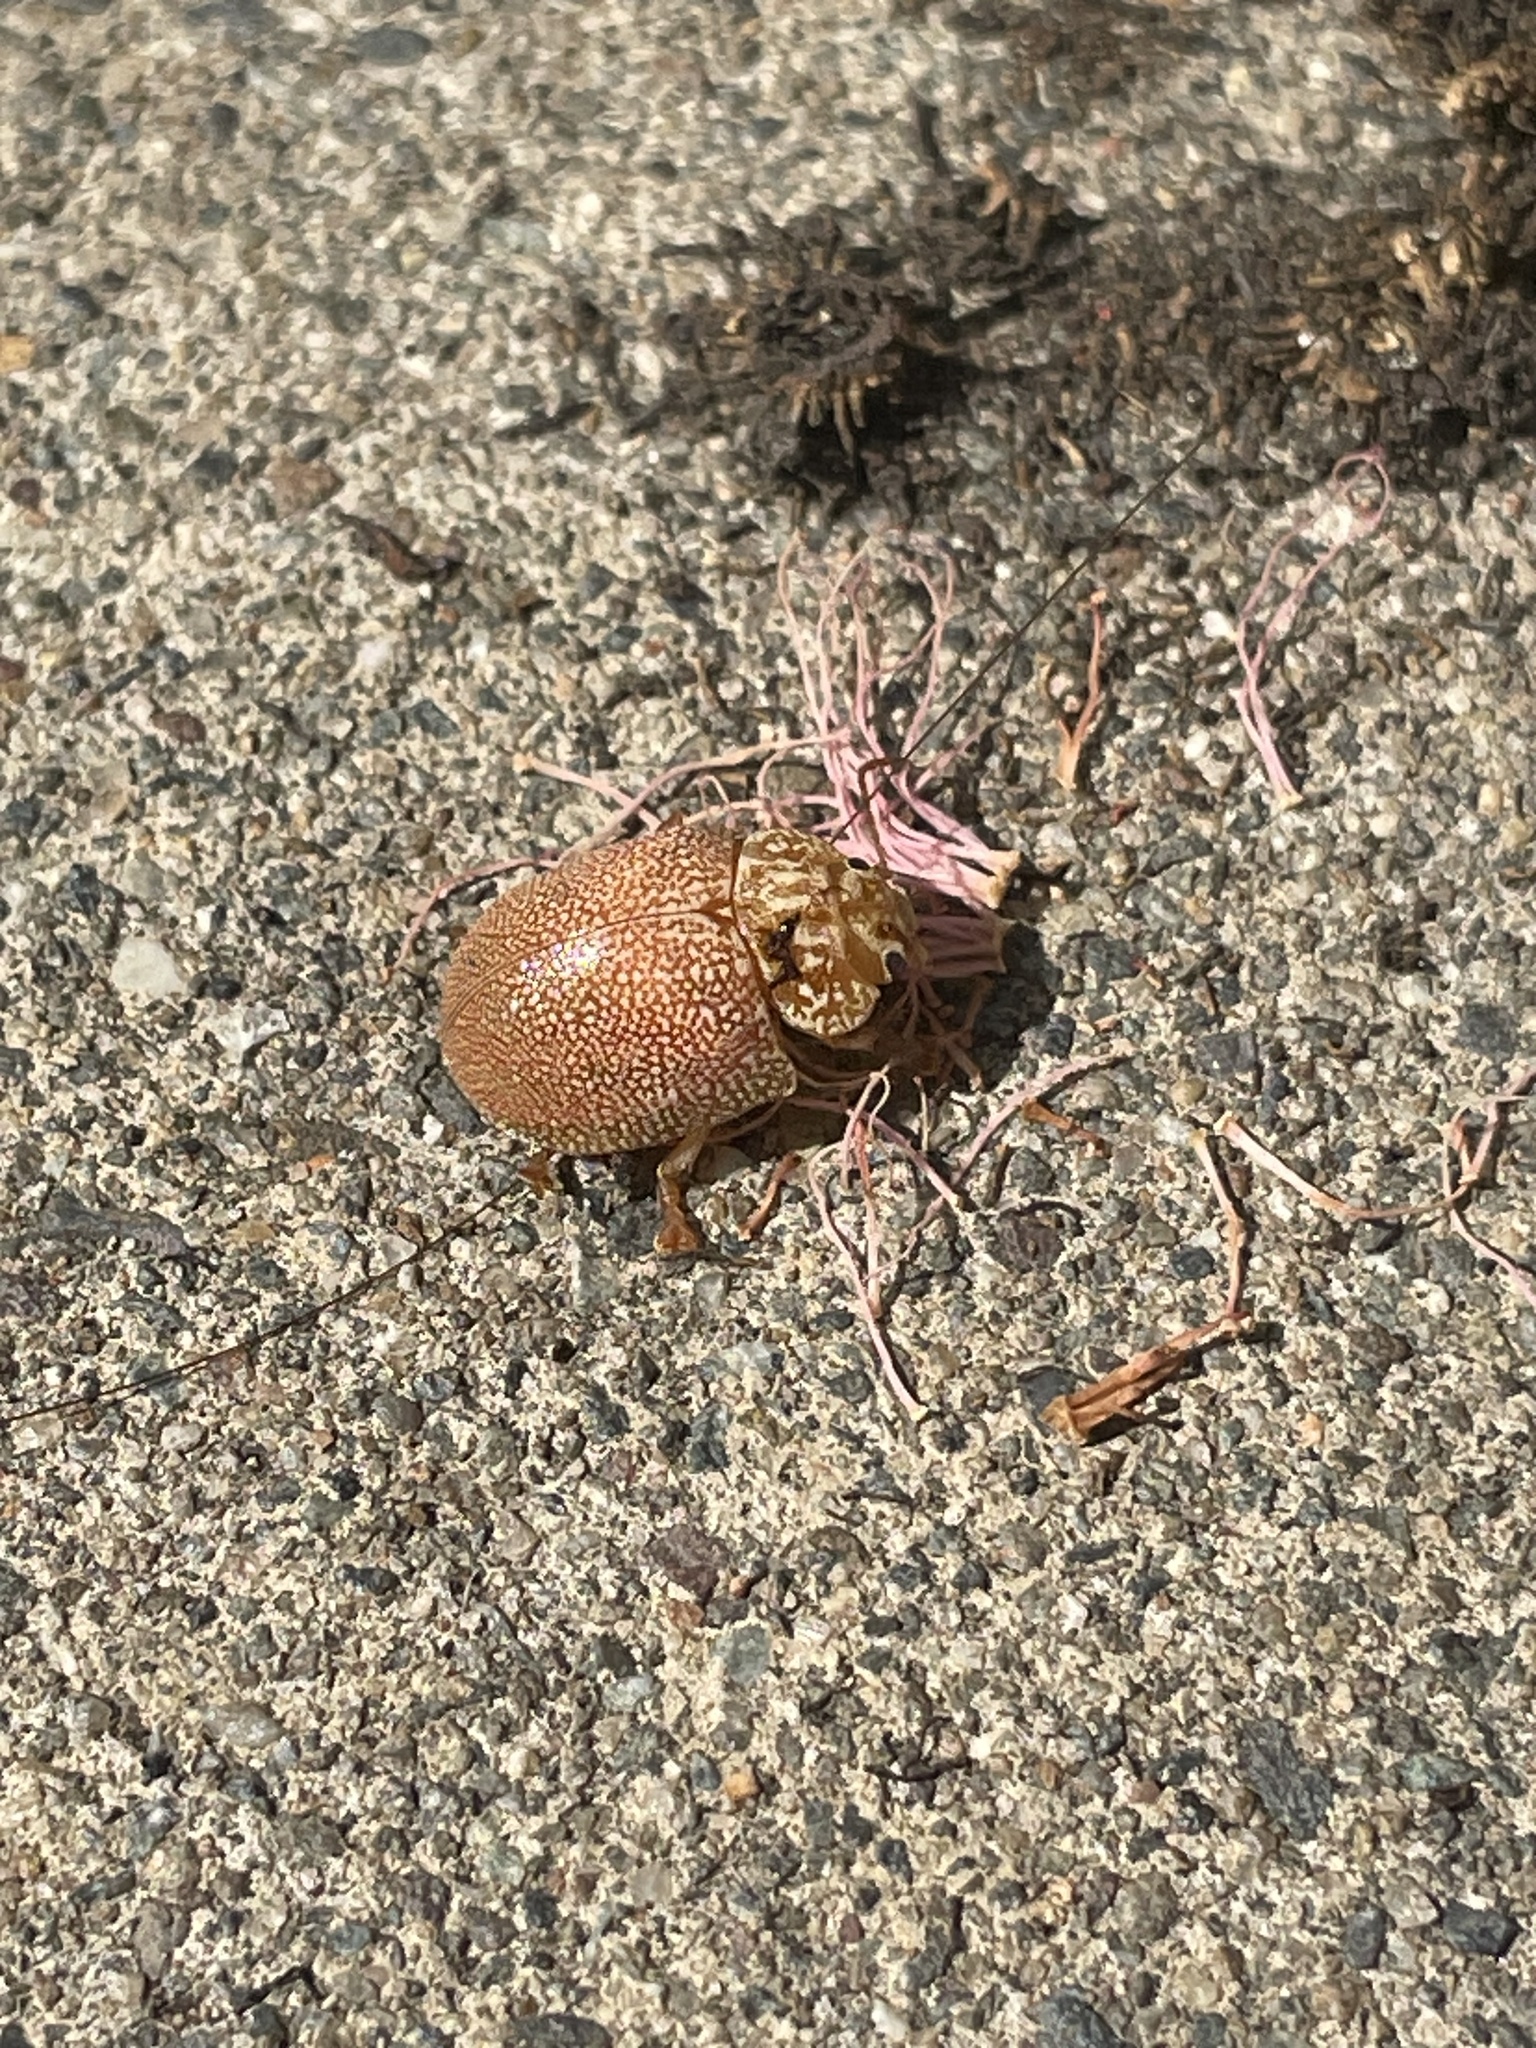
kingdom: Animalia
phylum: Arthropoda
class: Insecta
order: Coleoptera
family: Chrysomelidae
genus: Paropsis
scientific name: Paropsis
